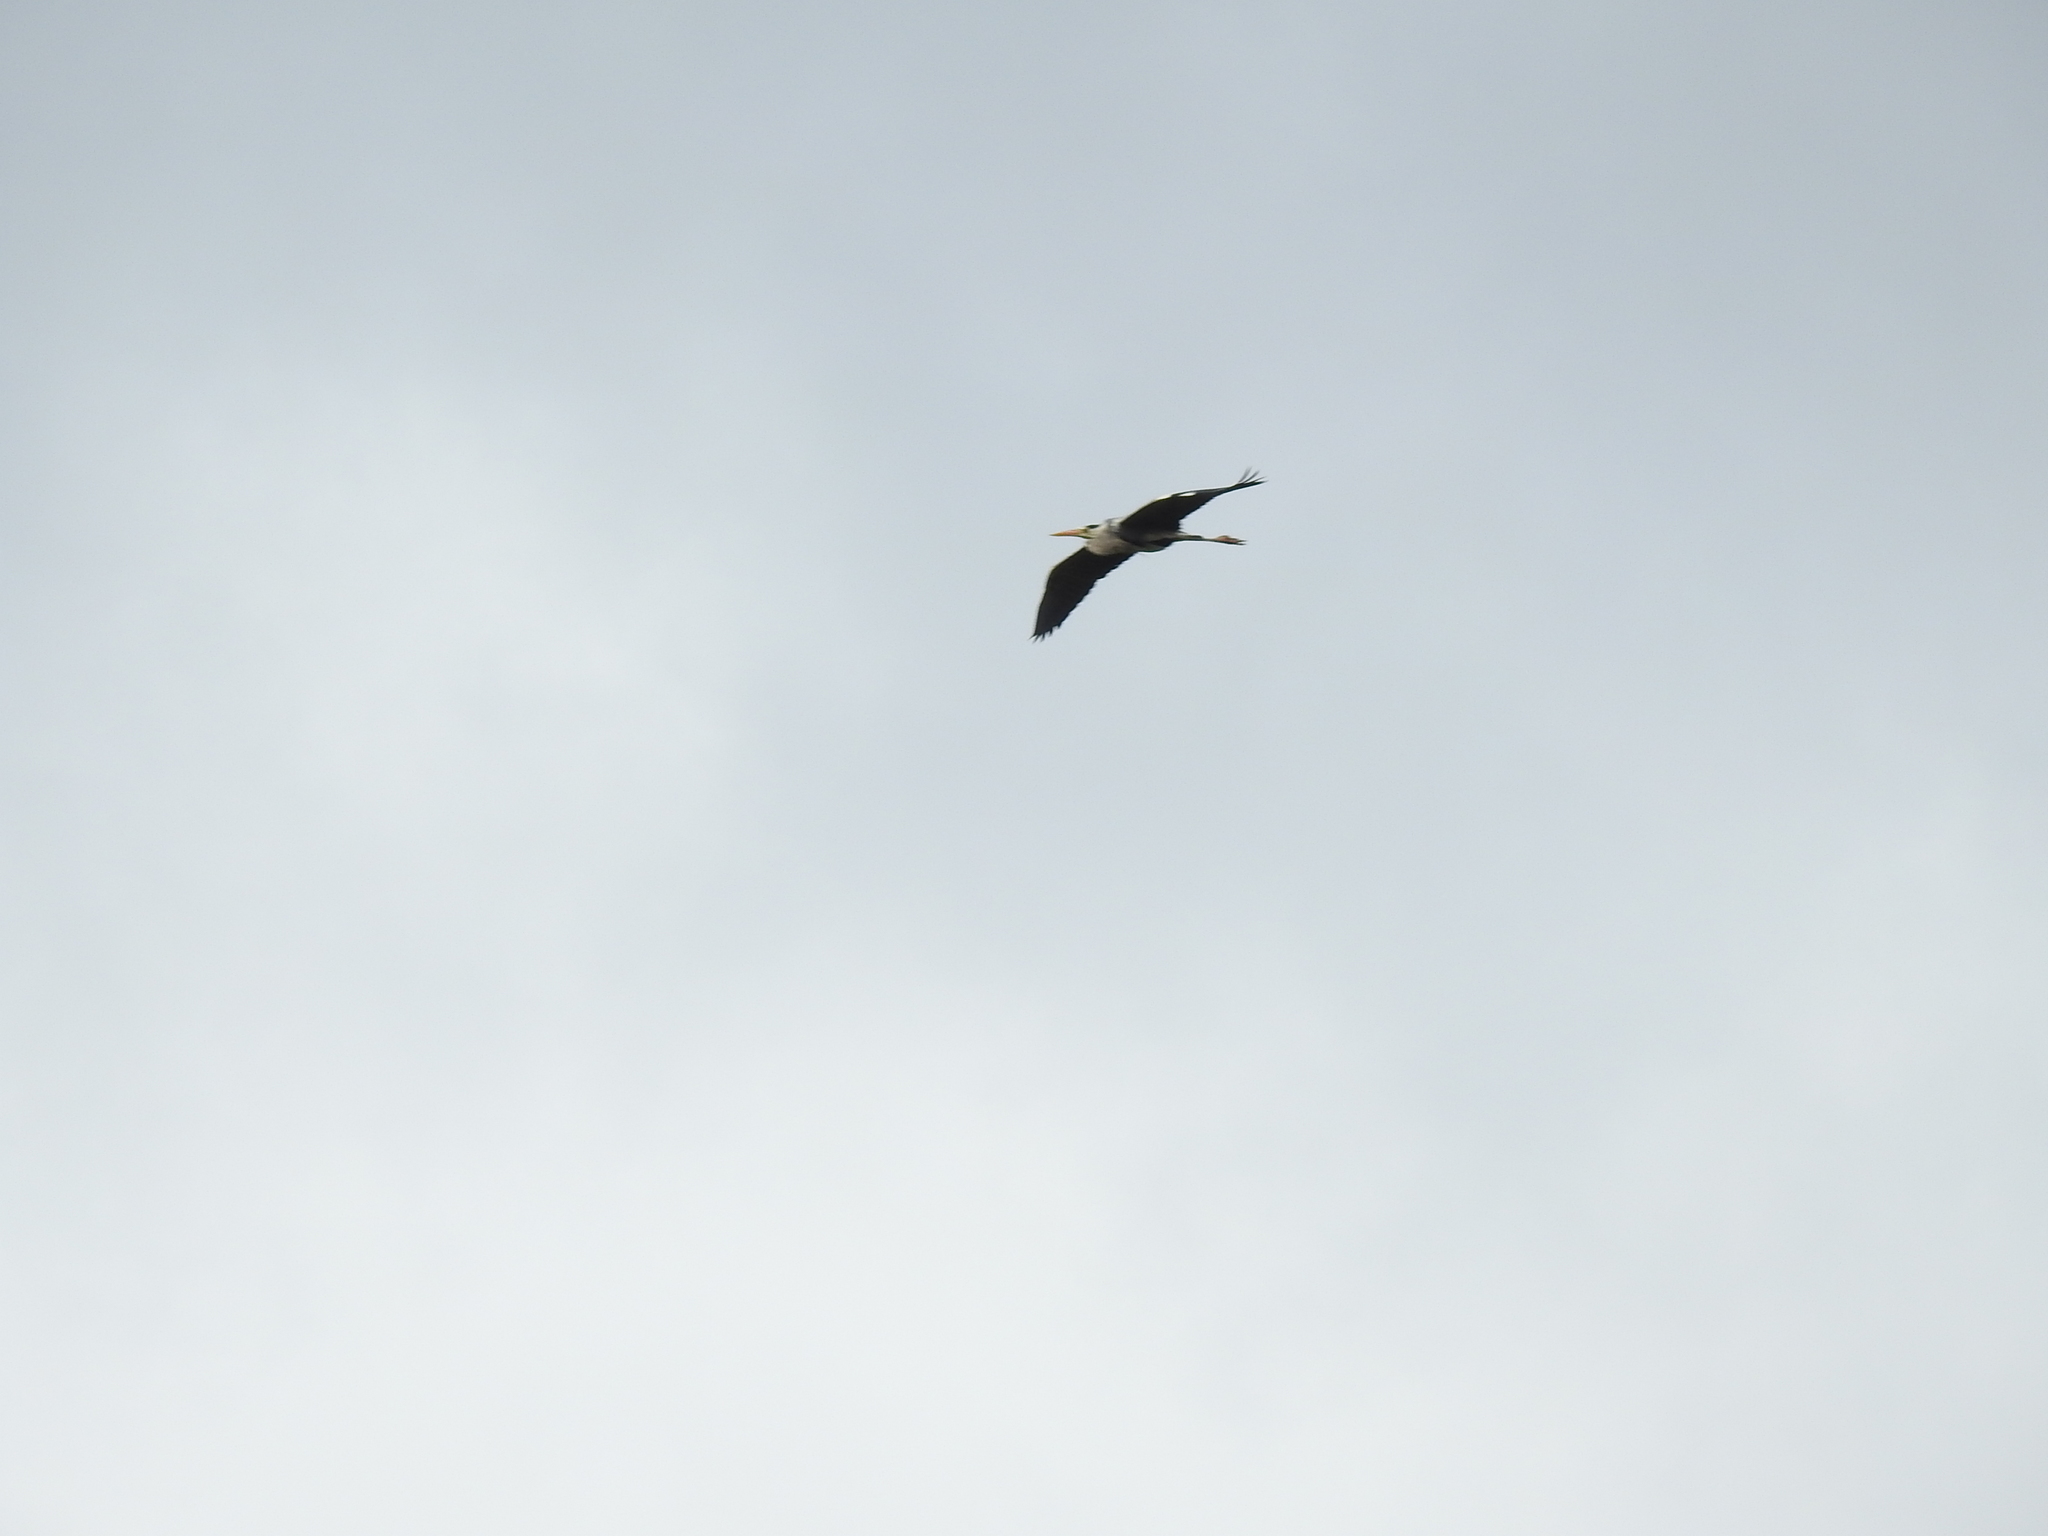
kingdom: Animalia
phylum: Chordata
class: Aves
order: Pelecaniformes
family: Ardeidae
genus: Ardea
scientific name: Ardea cinerea
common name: Grey heron
